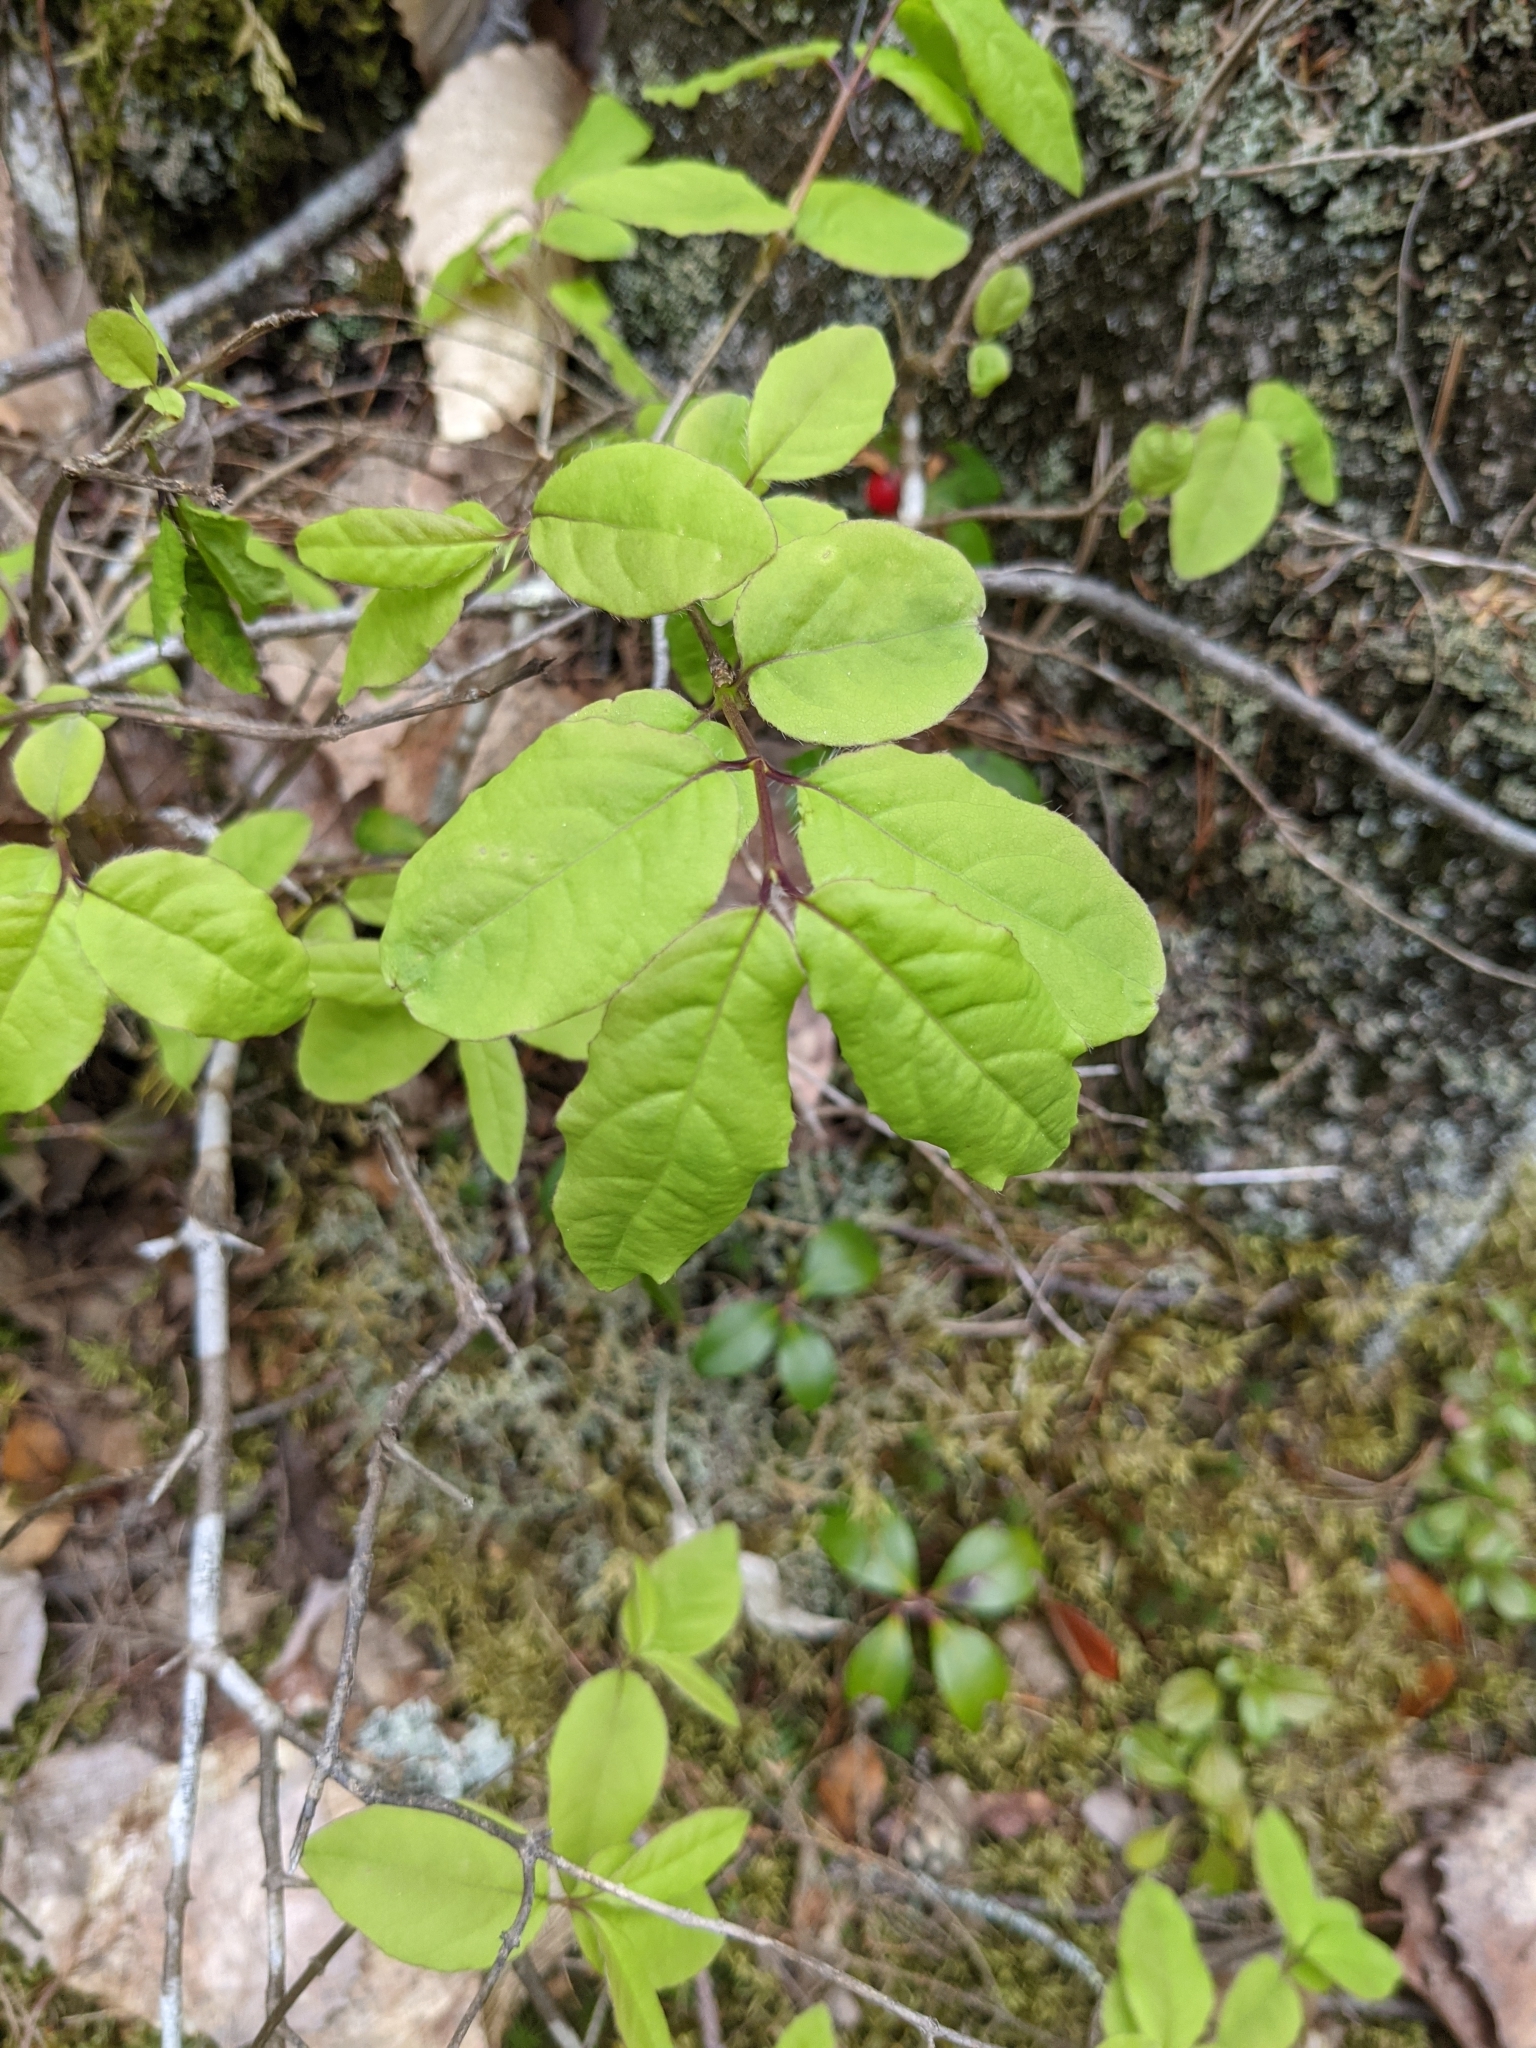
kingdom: Plantae
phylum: Tracheophyta
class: Magnoliopsida
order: Dipsacales
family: Caprifoliaceae
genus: Lonicera
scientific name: Lonicera canadensis
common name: American fly-honeysuckle
